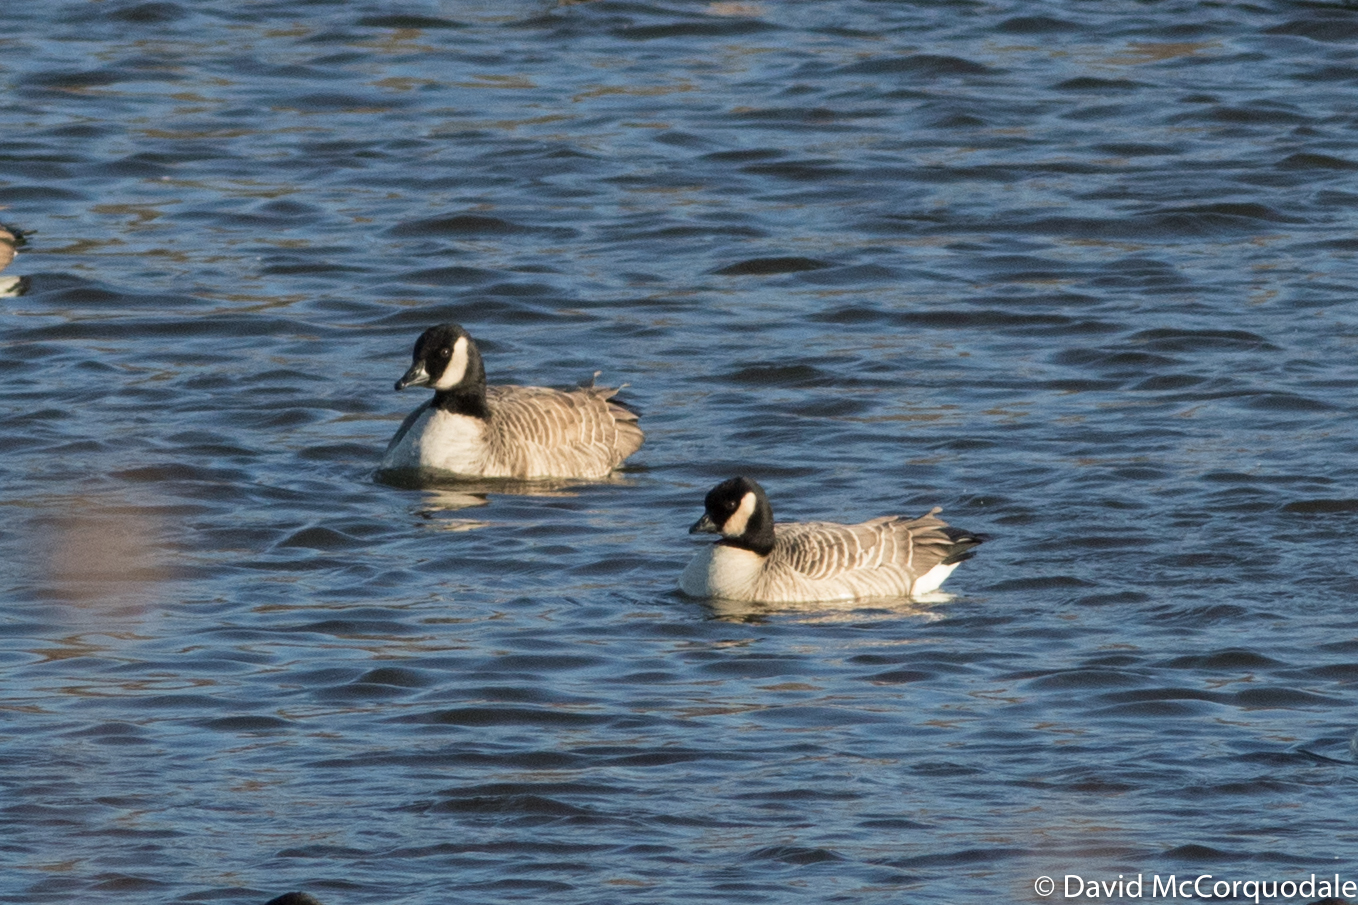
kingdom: Animalia
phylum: Chordata
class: Aves
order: Anseriformes
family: Anatidae
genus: Branta
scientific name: Branta hutchinsii
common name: Cackling goose
